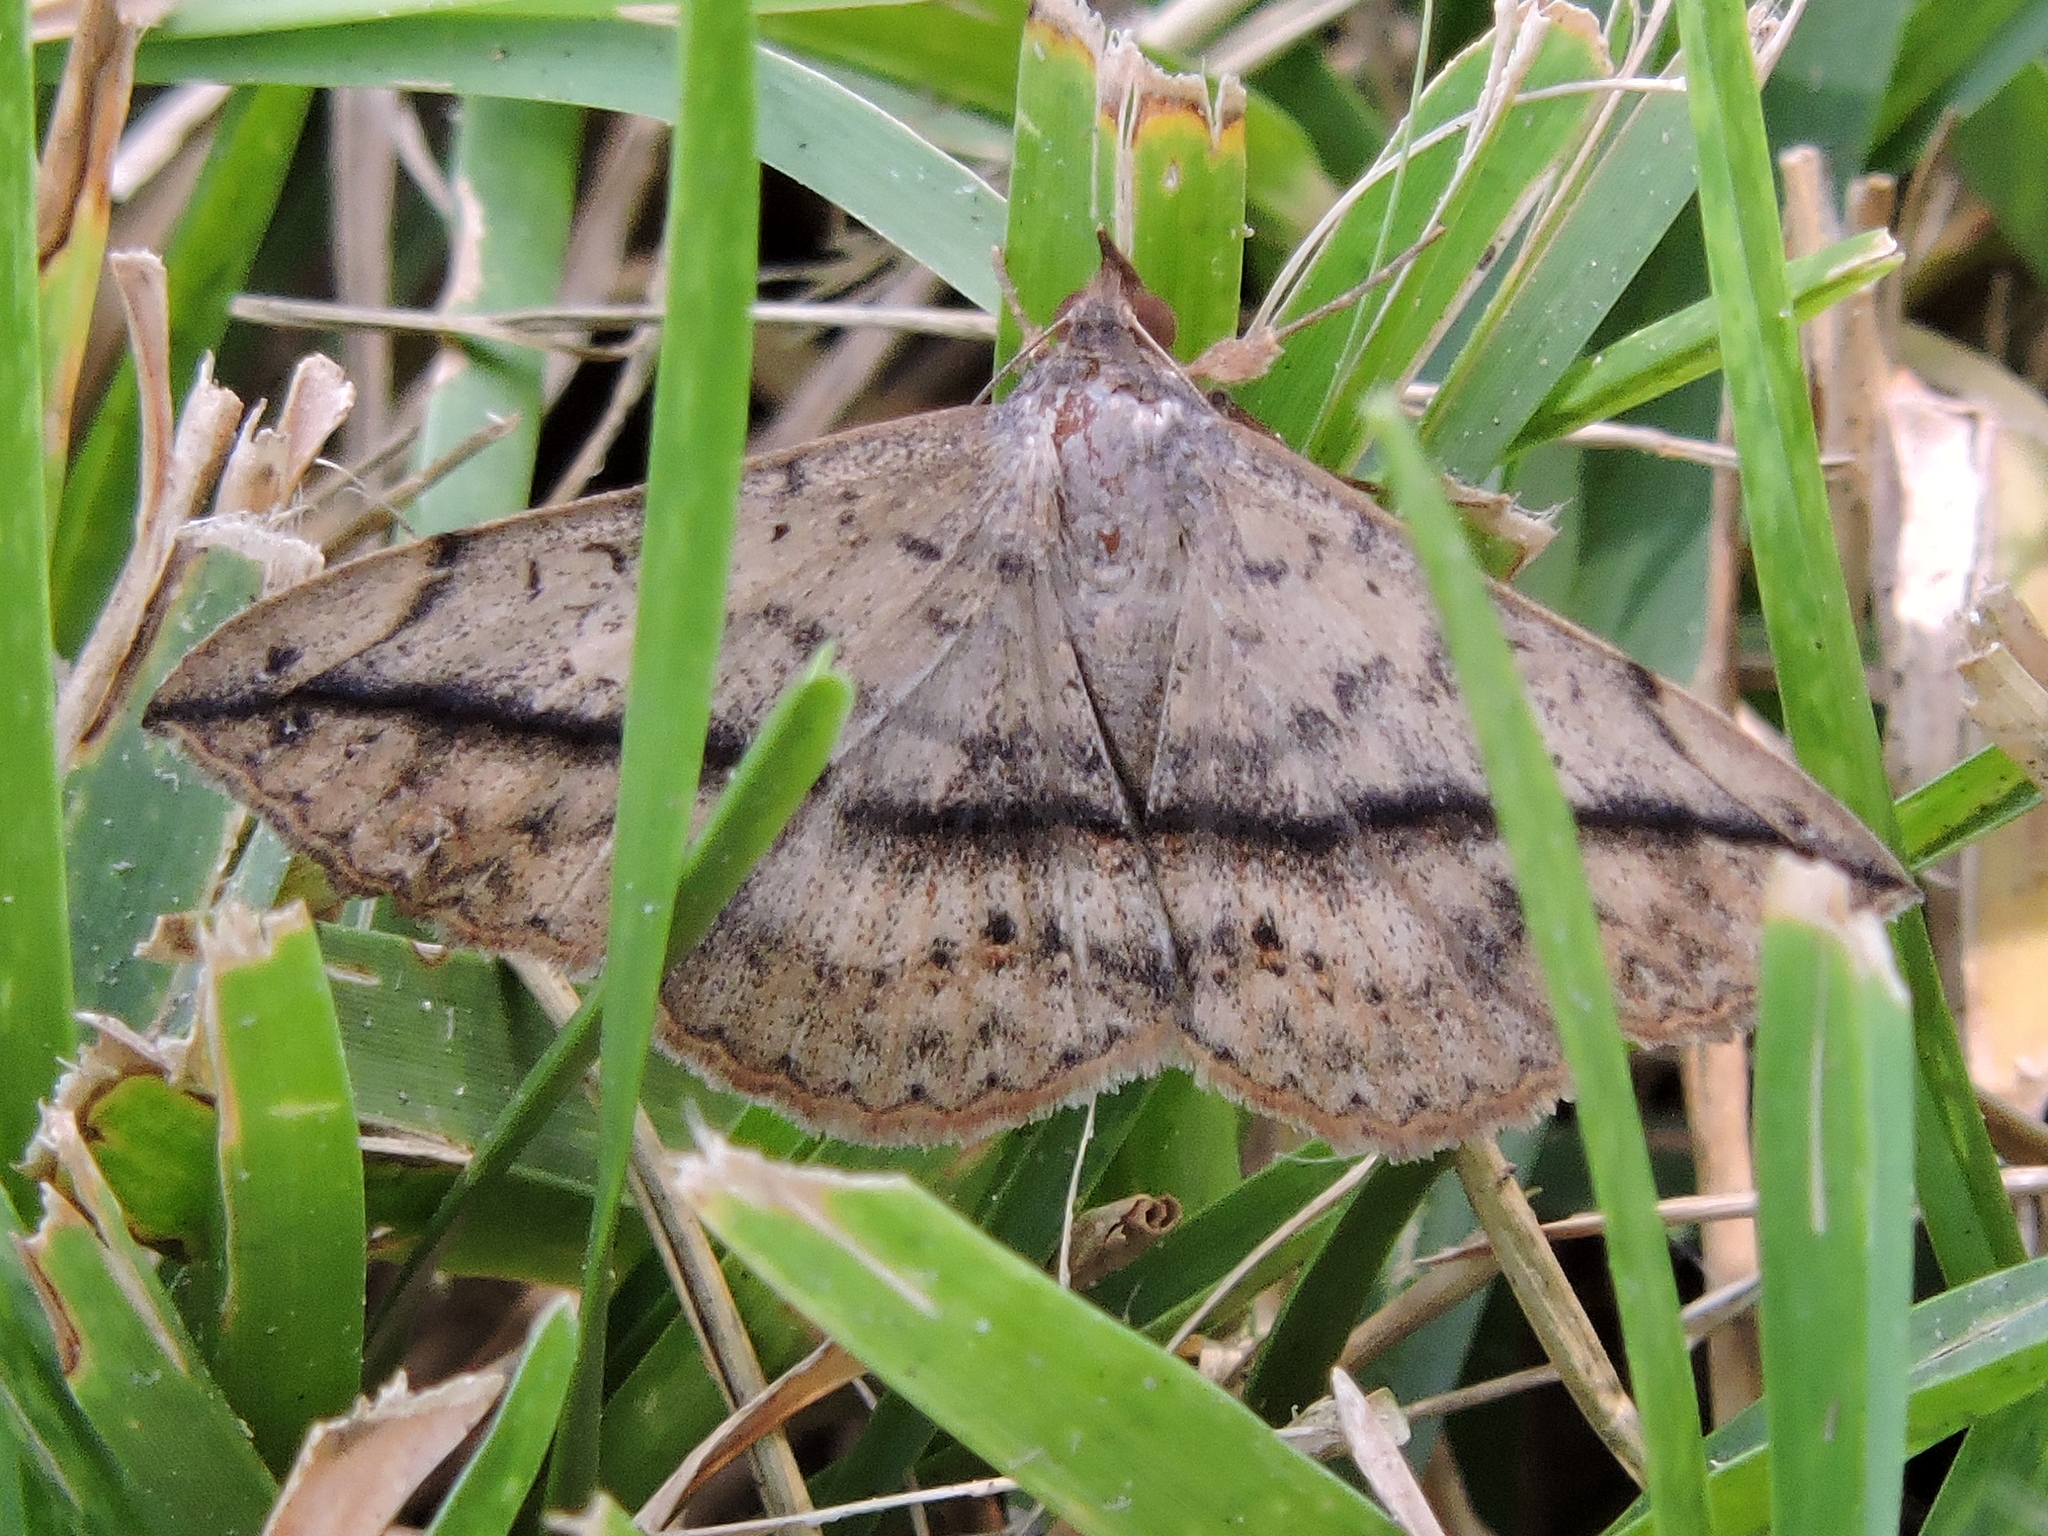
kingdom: Animalia
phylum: Arthropoda
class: Insecta
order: Lepidoptera
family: Erebidae
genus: Anticarsia
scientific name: Anticarsia gemmatalis
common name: Cutworm moth
